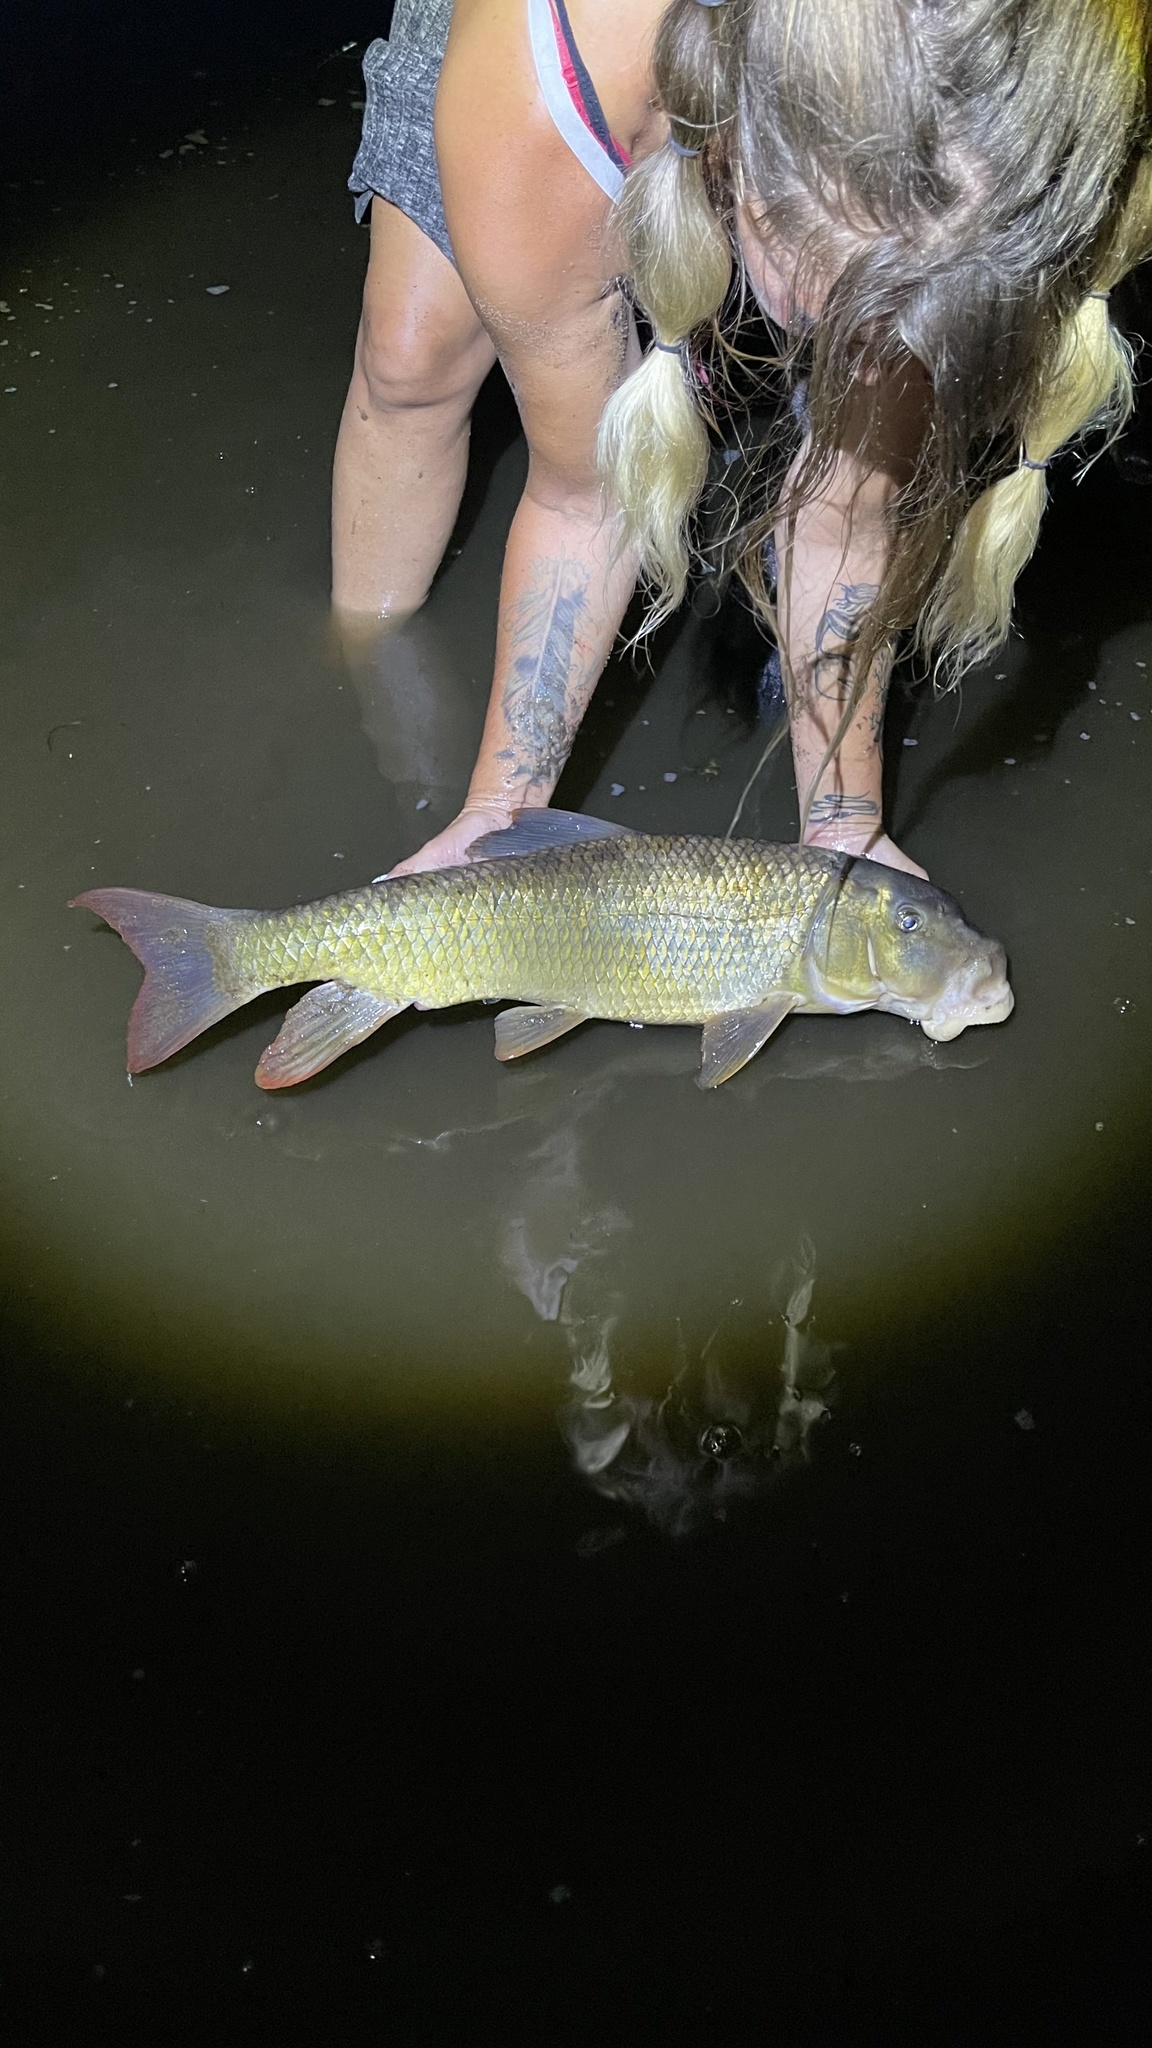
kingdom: Animalia
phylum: Chordata
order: Cypriniformes
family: Catostomidae
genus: Moxostoma
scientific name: Moxostoma carinatum
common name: River redhorse
